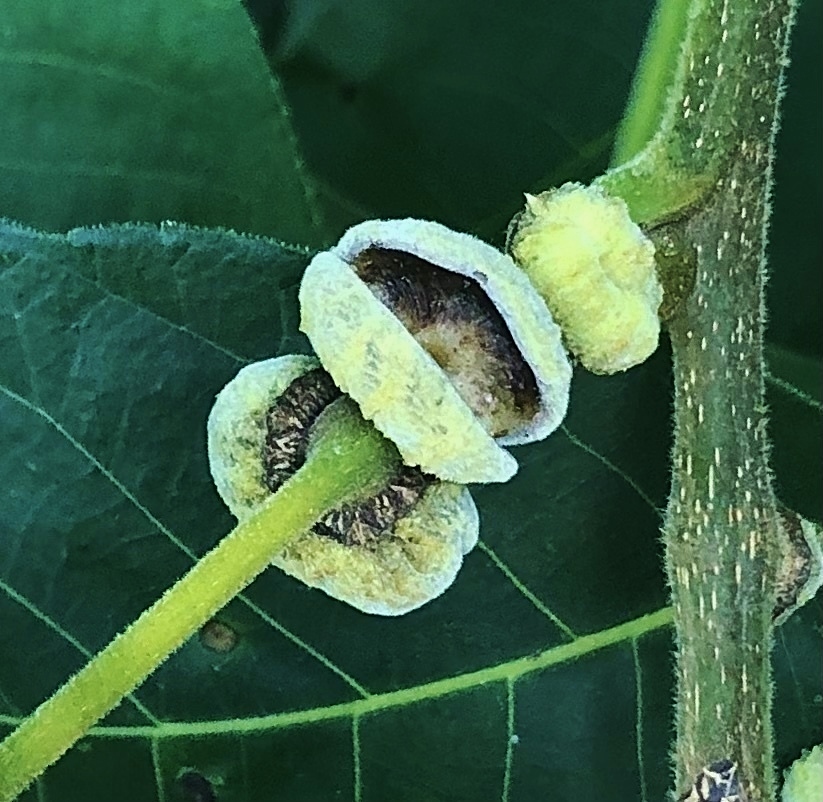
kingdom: Animalia
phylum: Arthropoda
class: Insecta
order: Hemiptera
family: Phylloxeridae
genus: Phylloxera
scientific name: Phylloxera caryaeren
